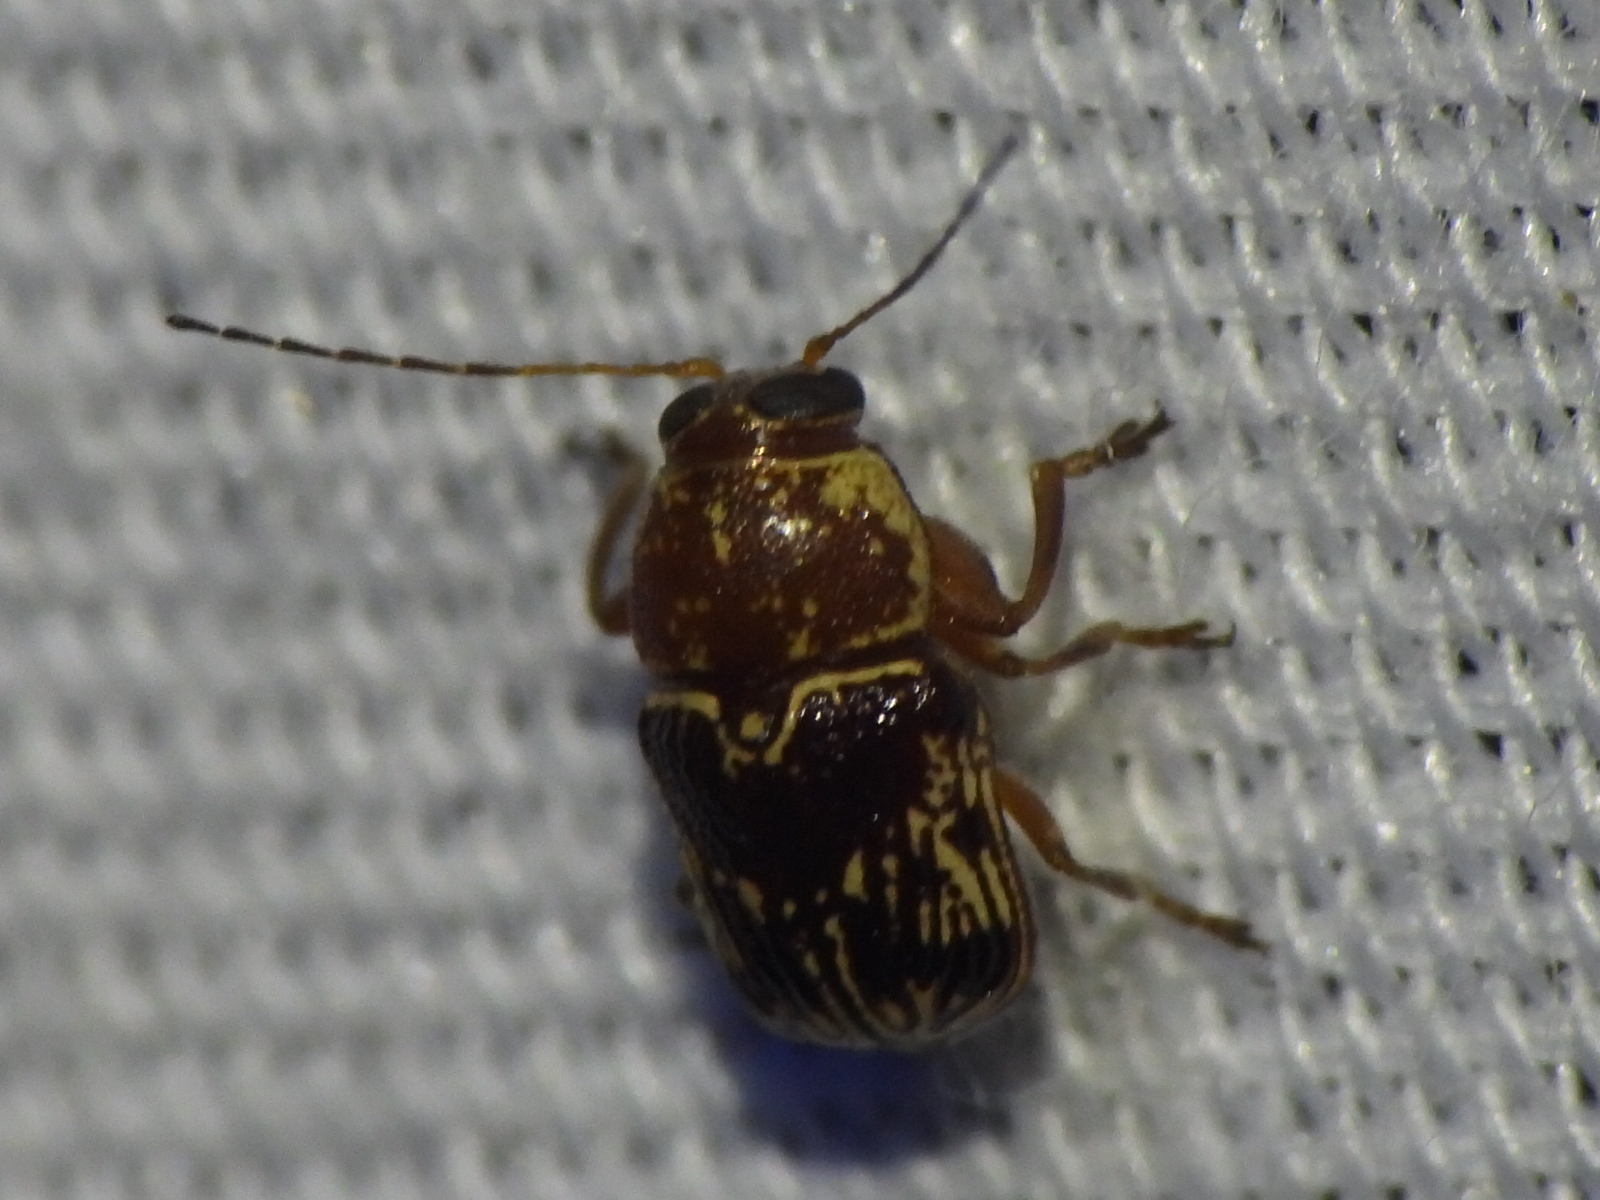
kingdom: Animalia
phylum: Arthropoda
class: Insecta
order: Coleoptera
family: Chrysomelidae
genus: Pachybrachis
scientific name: Pachybrachis
